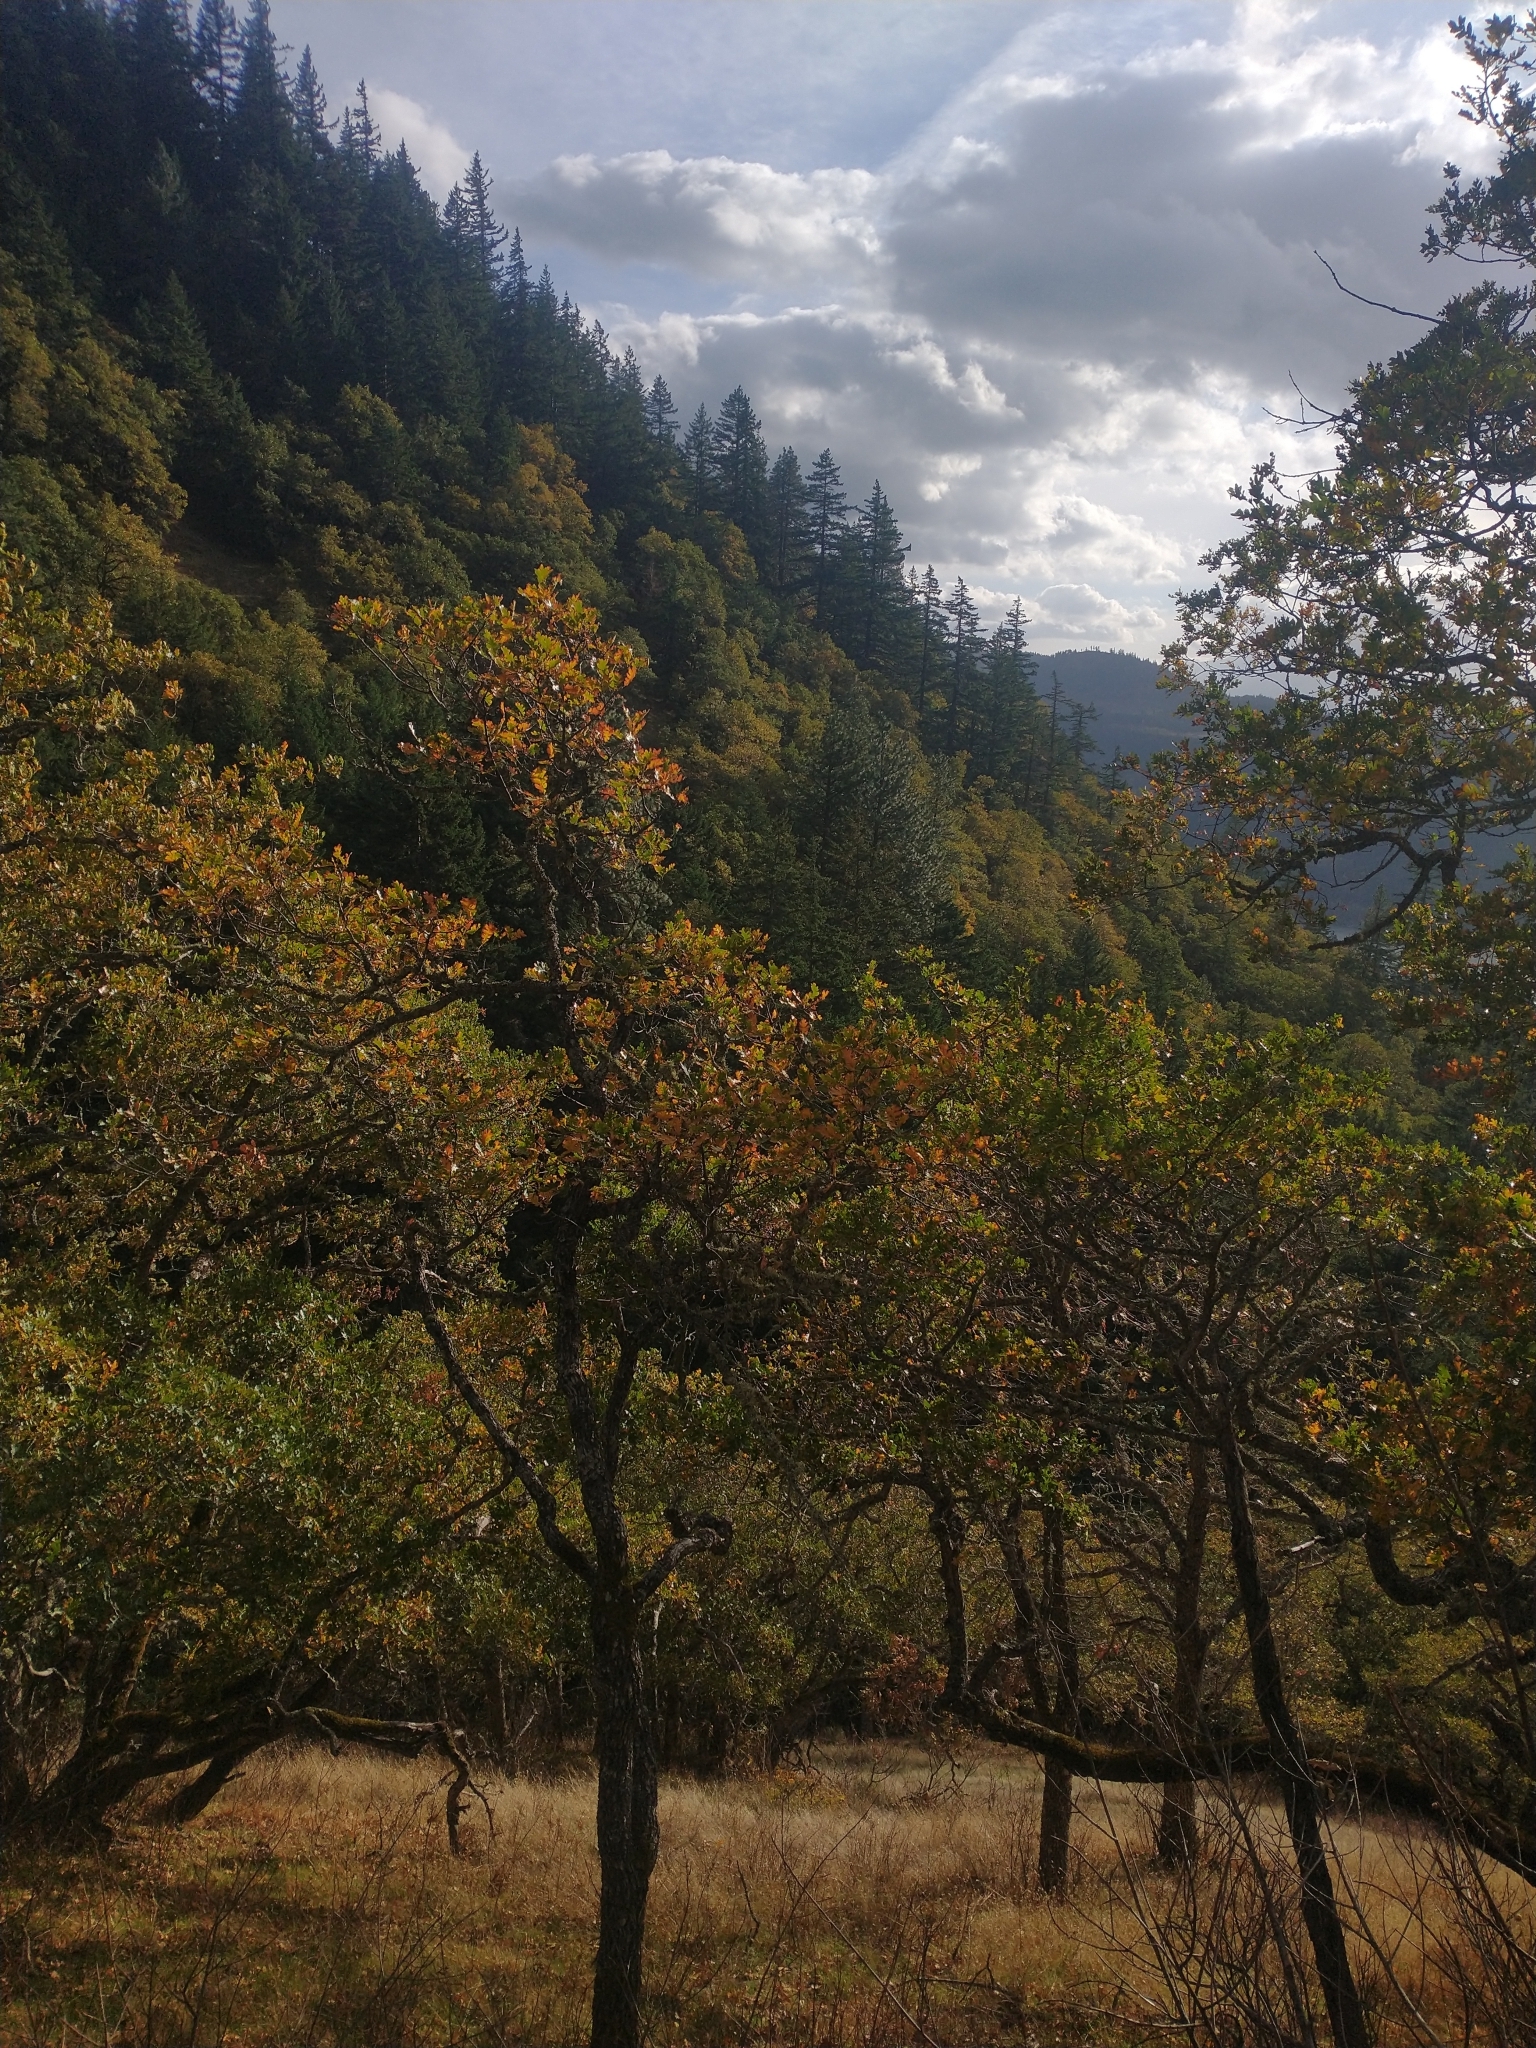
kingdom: Plantae
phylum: Tracheophyta
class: Magnoliopsida
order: Fagales
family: Fagaceae
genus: Quercus
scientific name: Quercus garryana
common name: Garry oak
